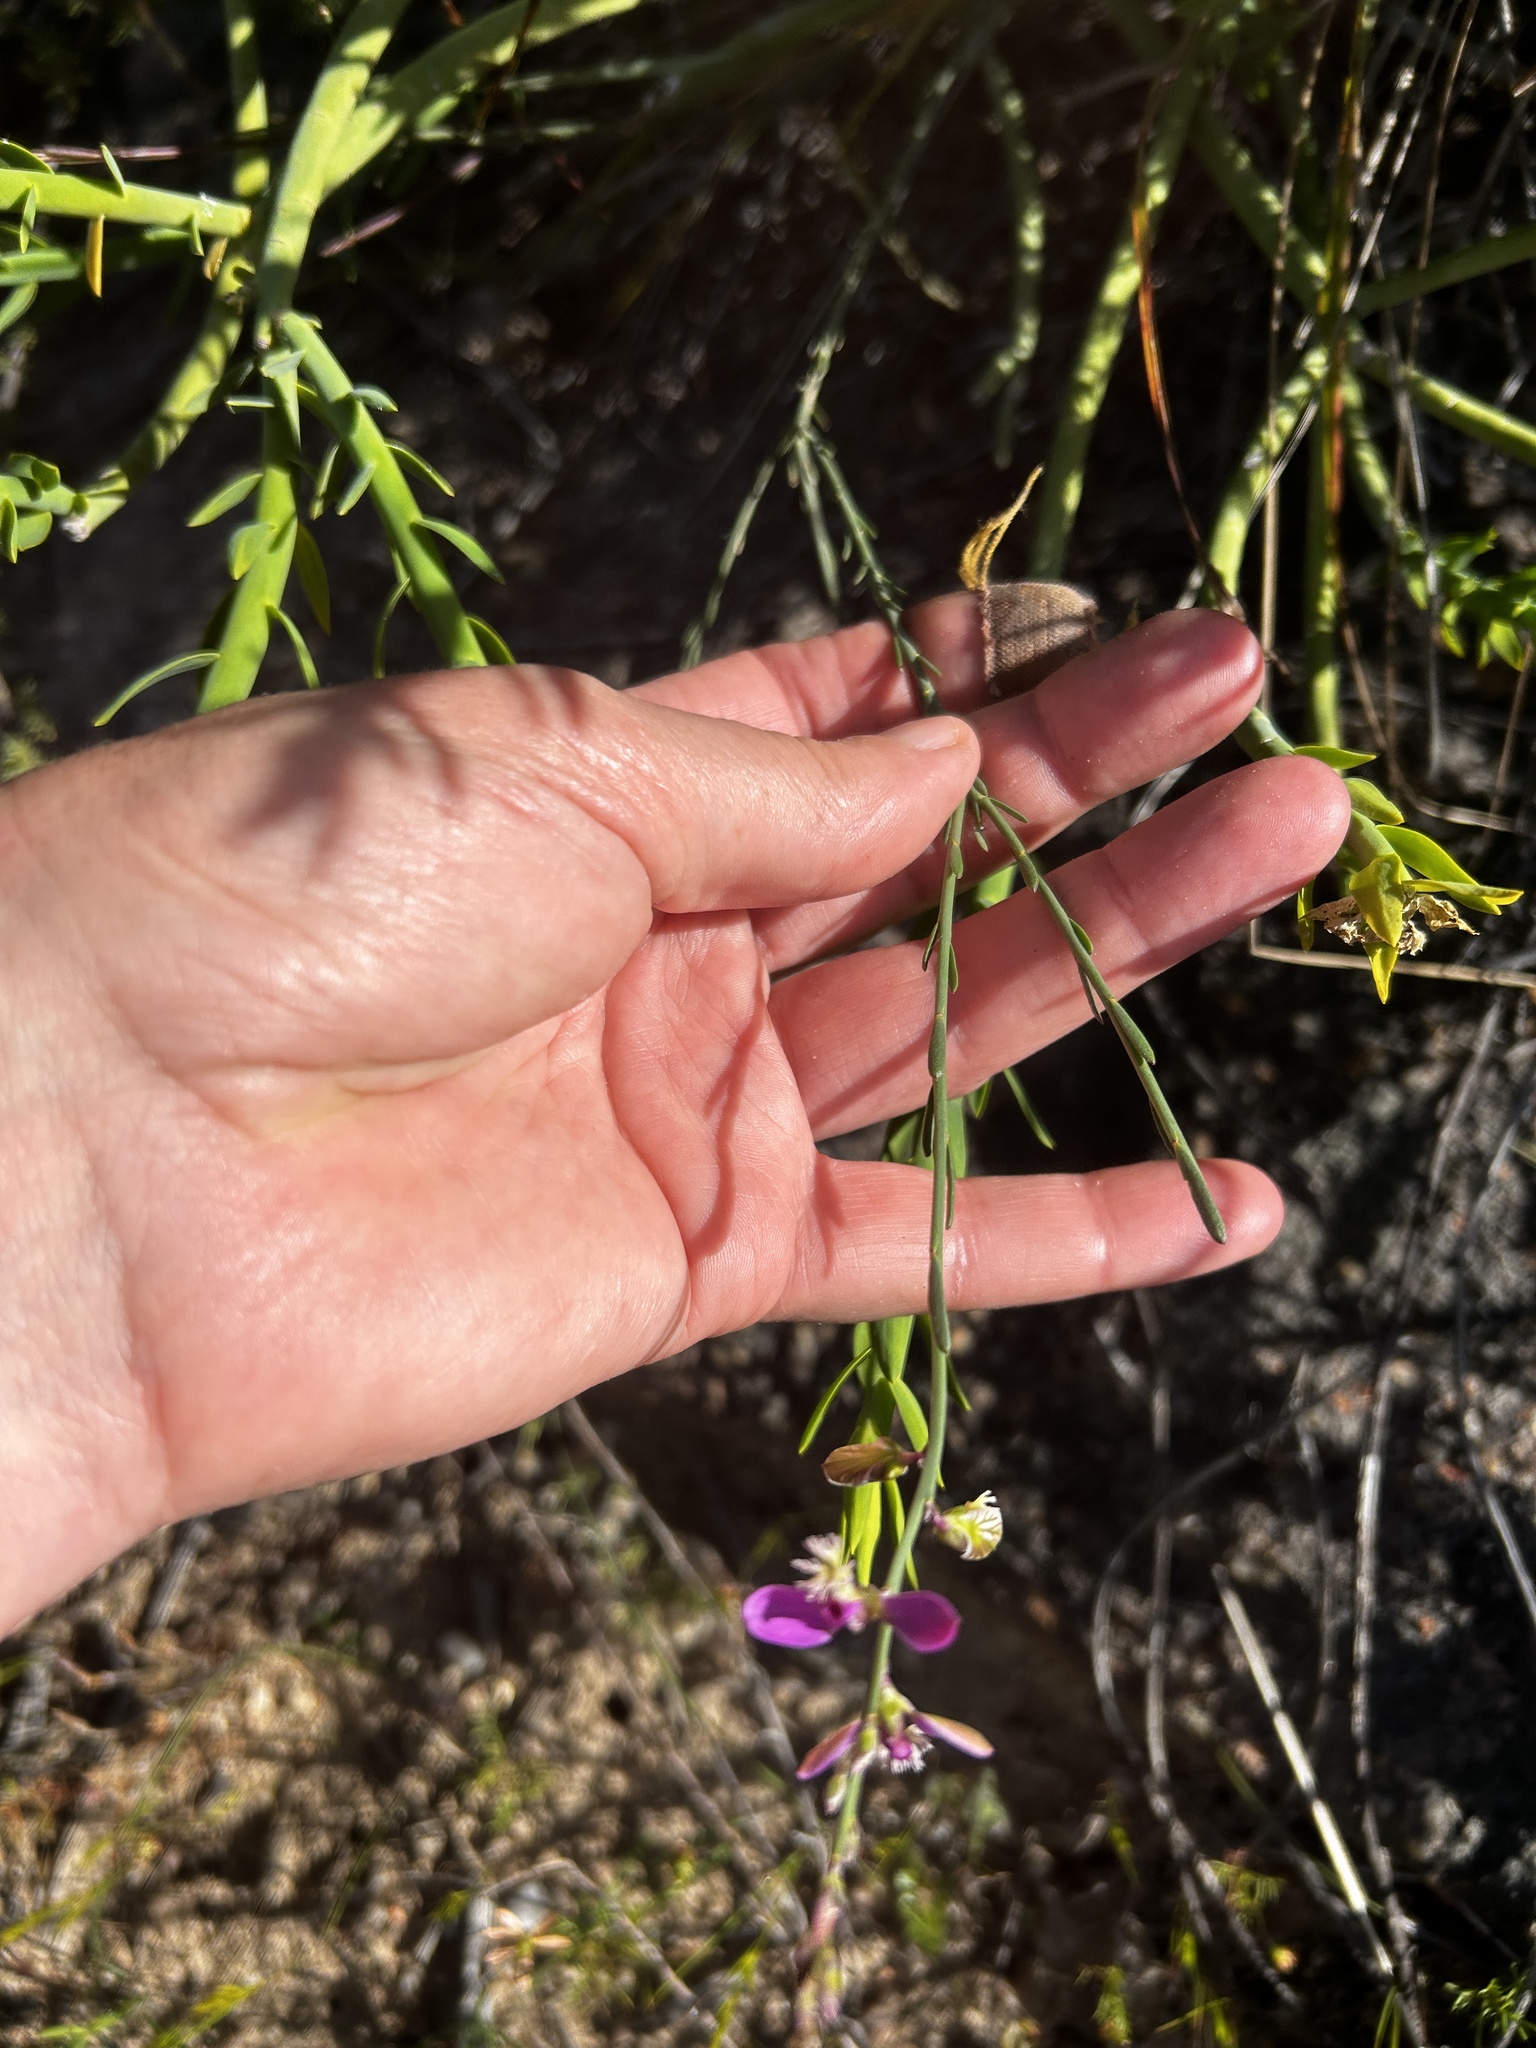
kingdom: Plantae
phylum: Tracheophyta
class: Magnoliopsida
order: Fabales
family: Polygalaceae
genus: Polygala
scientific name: Polygala garcini
